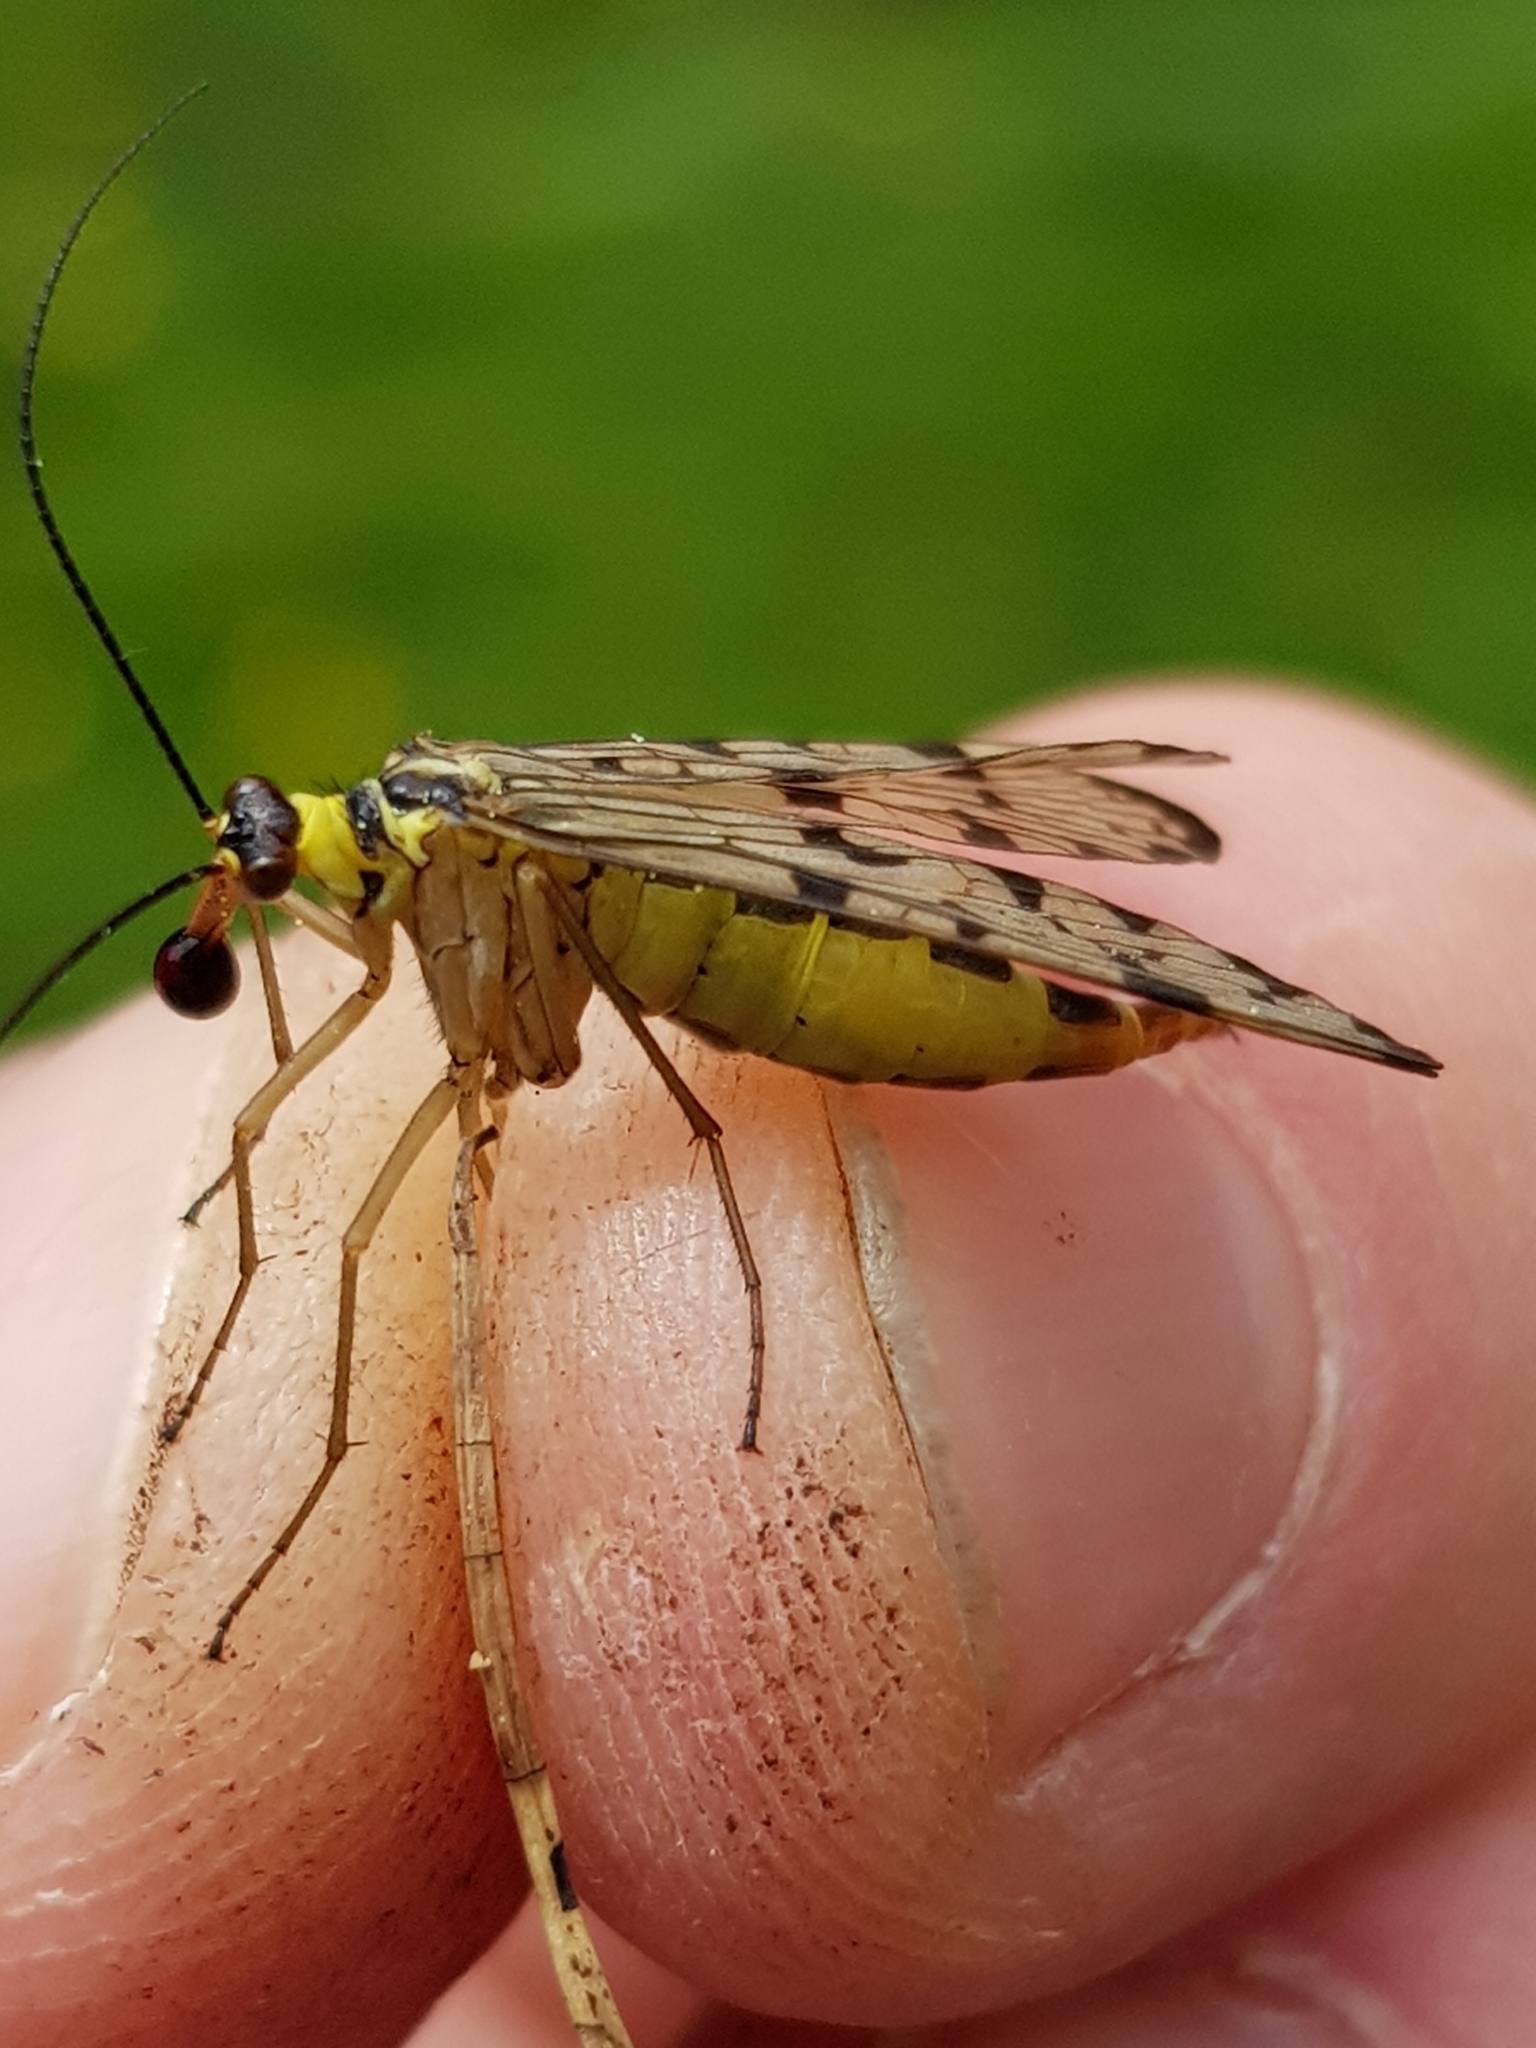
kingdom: Animalia
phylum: Arthropoda
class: Insecta
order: Mecoptera
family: Panorpidae
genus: Panorpa
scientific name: Panorpa germanica
